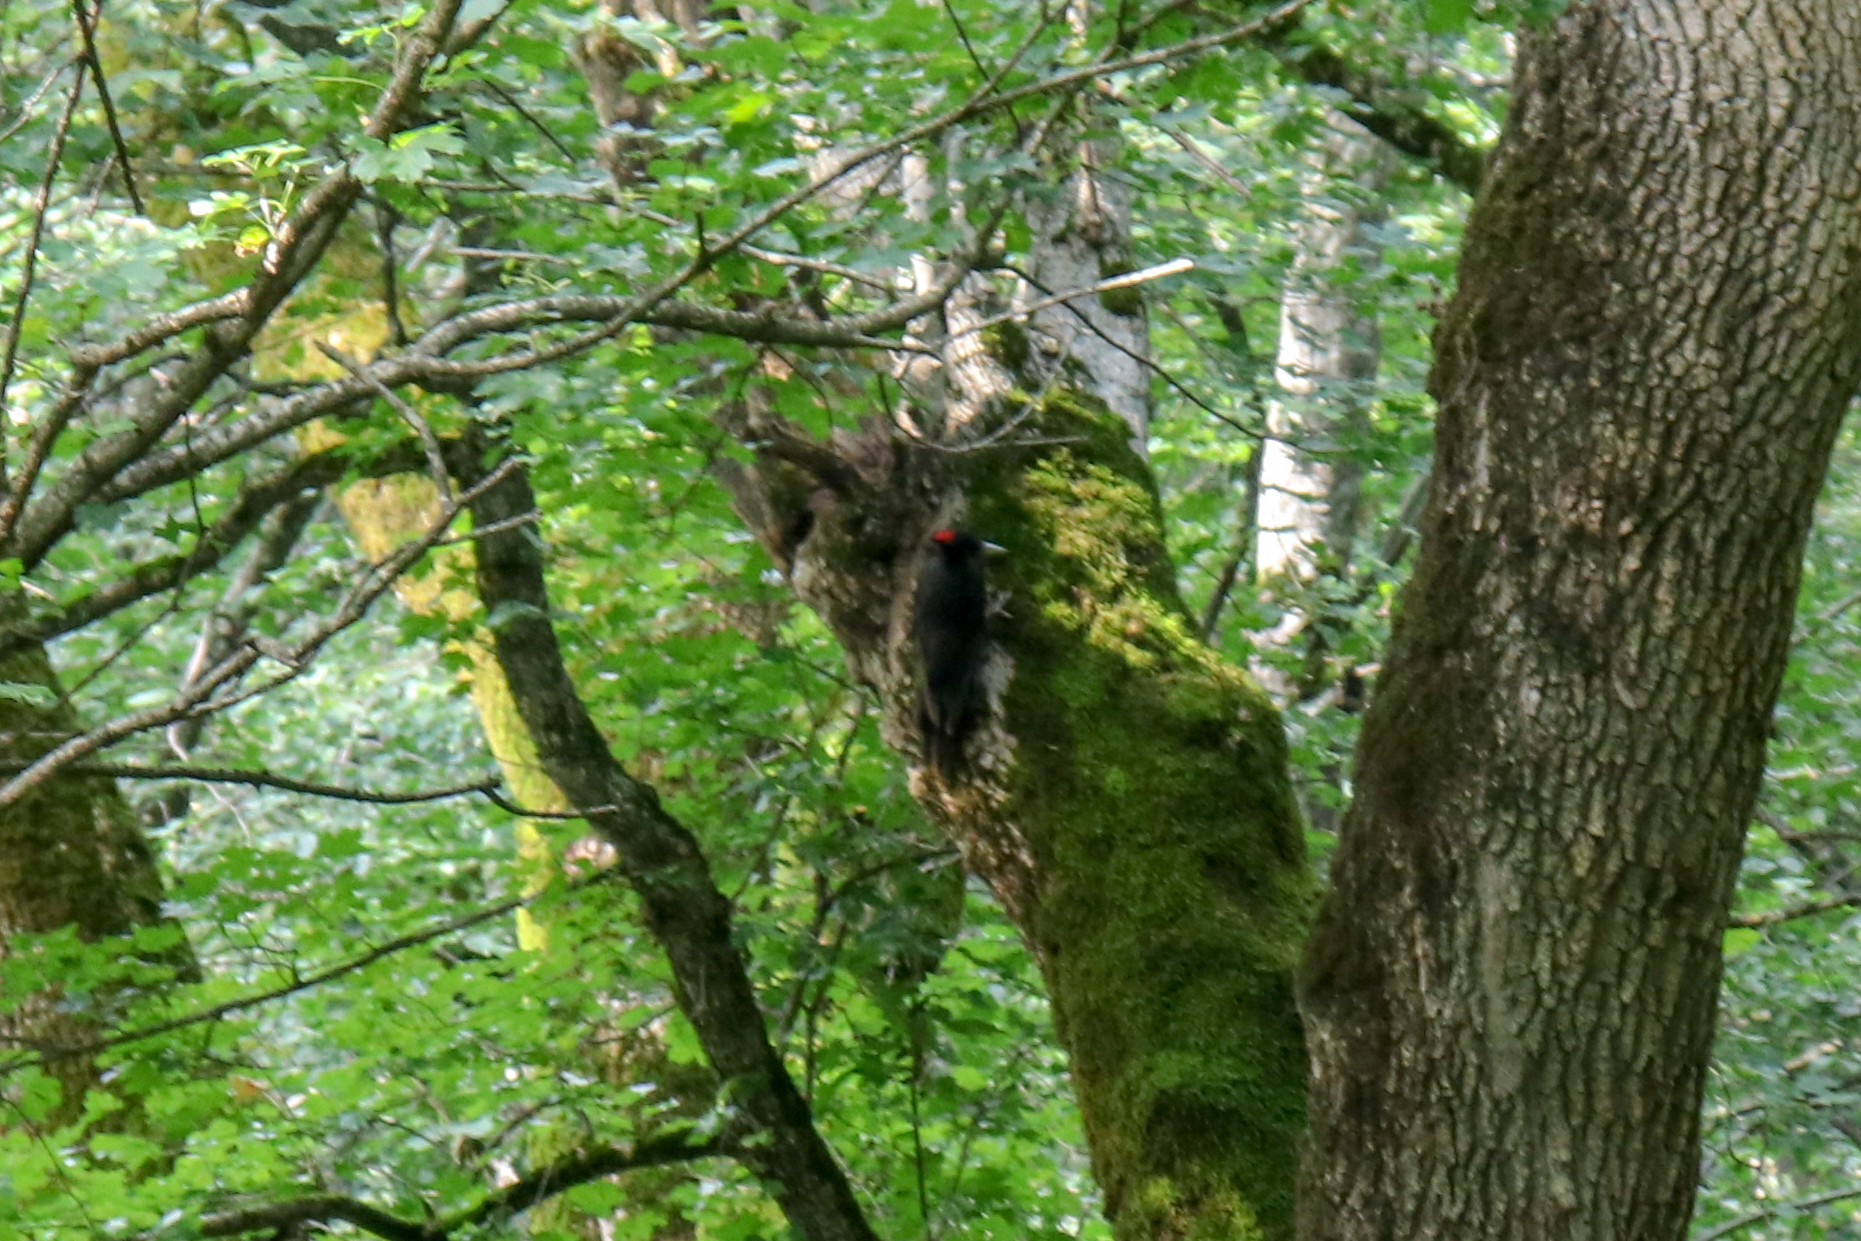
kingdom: Animalia
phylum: Chordata
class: Aves
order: Piciformes
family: Picidae
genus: Dryocopus
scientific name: Dryocopus martius
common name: Black woodpecker
